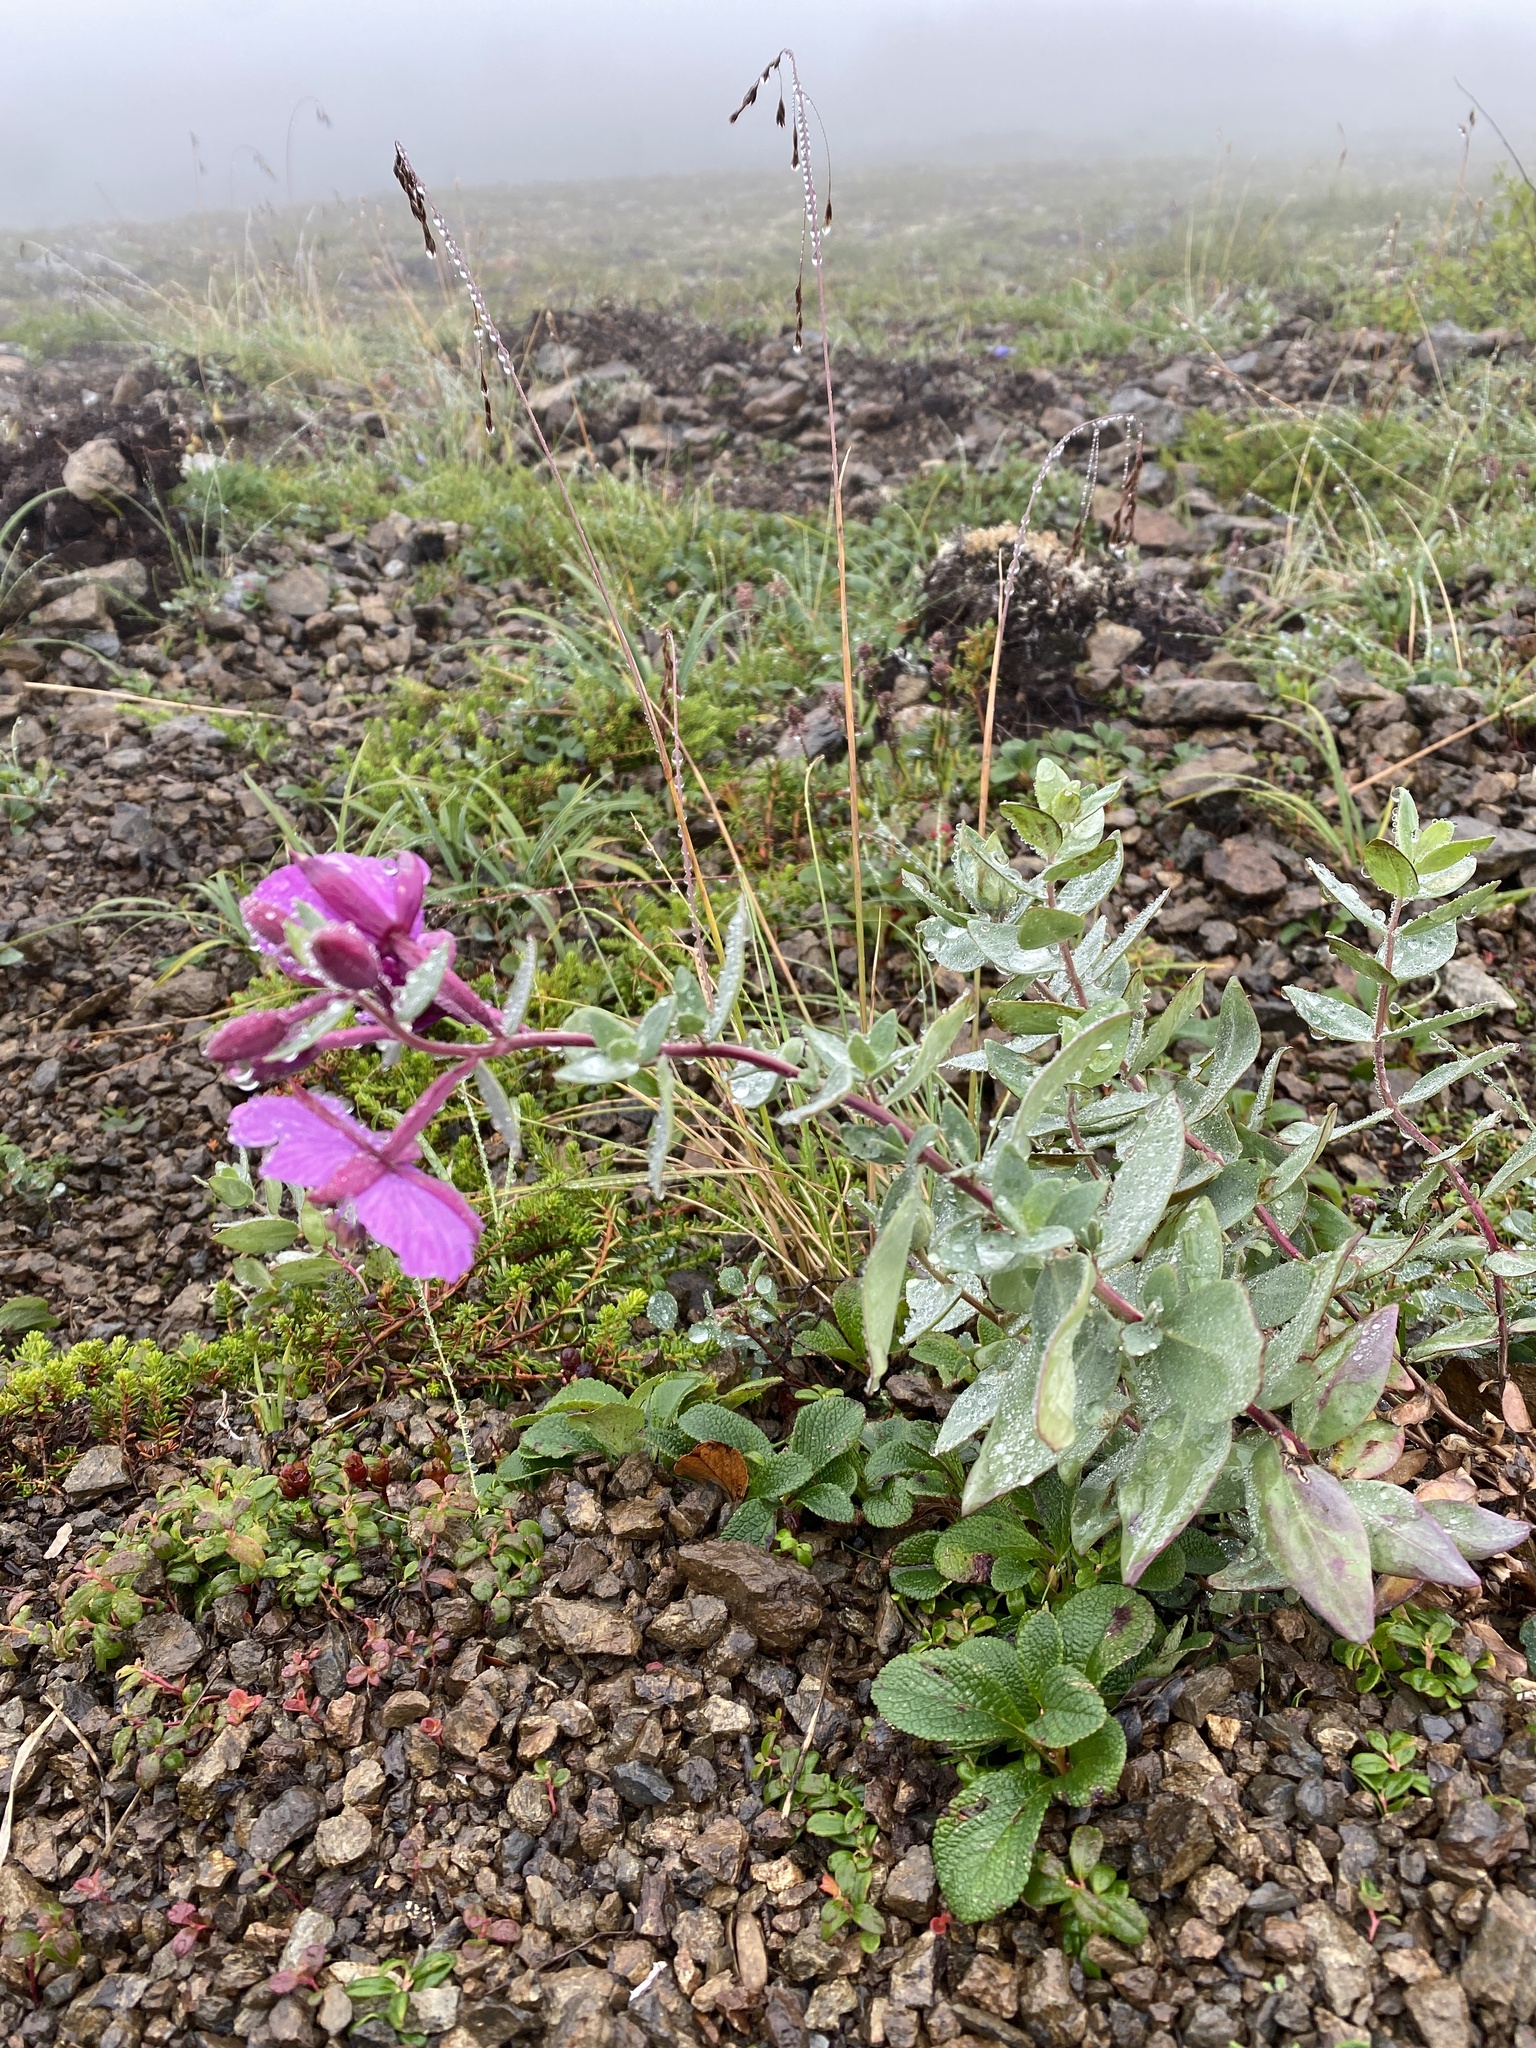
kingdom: Plantae
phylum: Tracheophyta
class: Magnoliopsida
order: Myrtales
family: Onagraceae
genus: Chamaenerion
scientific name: Chamaenerion latifolium
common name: Dwarf fireweed
